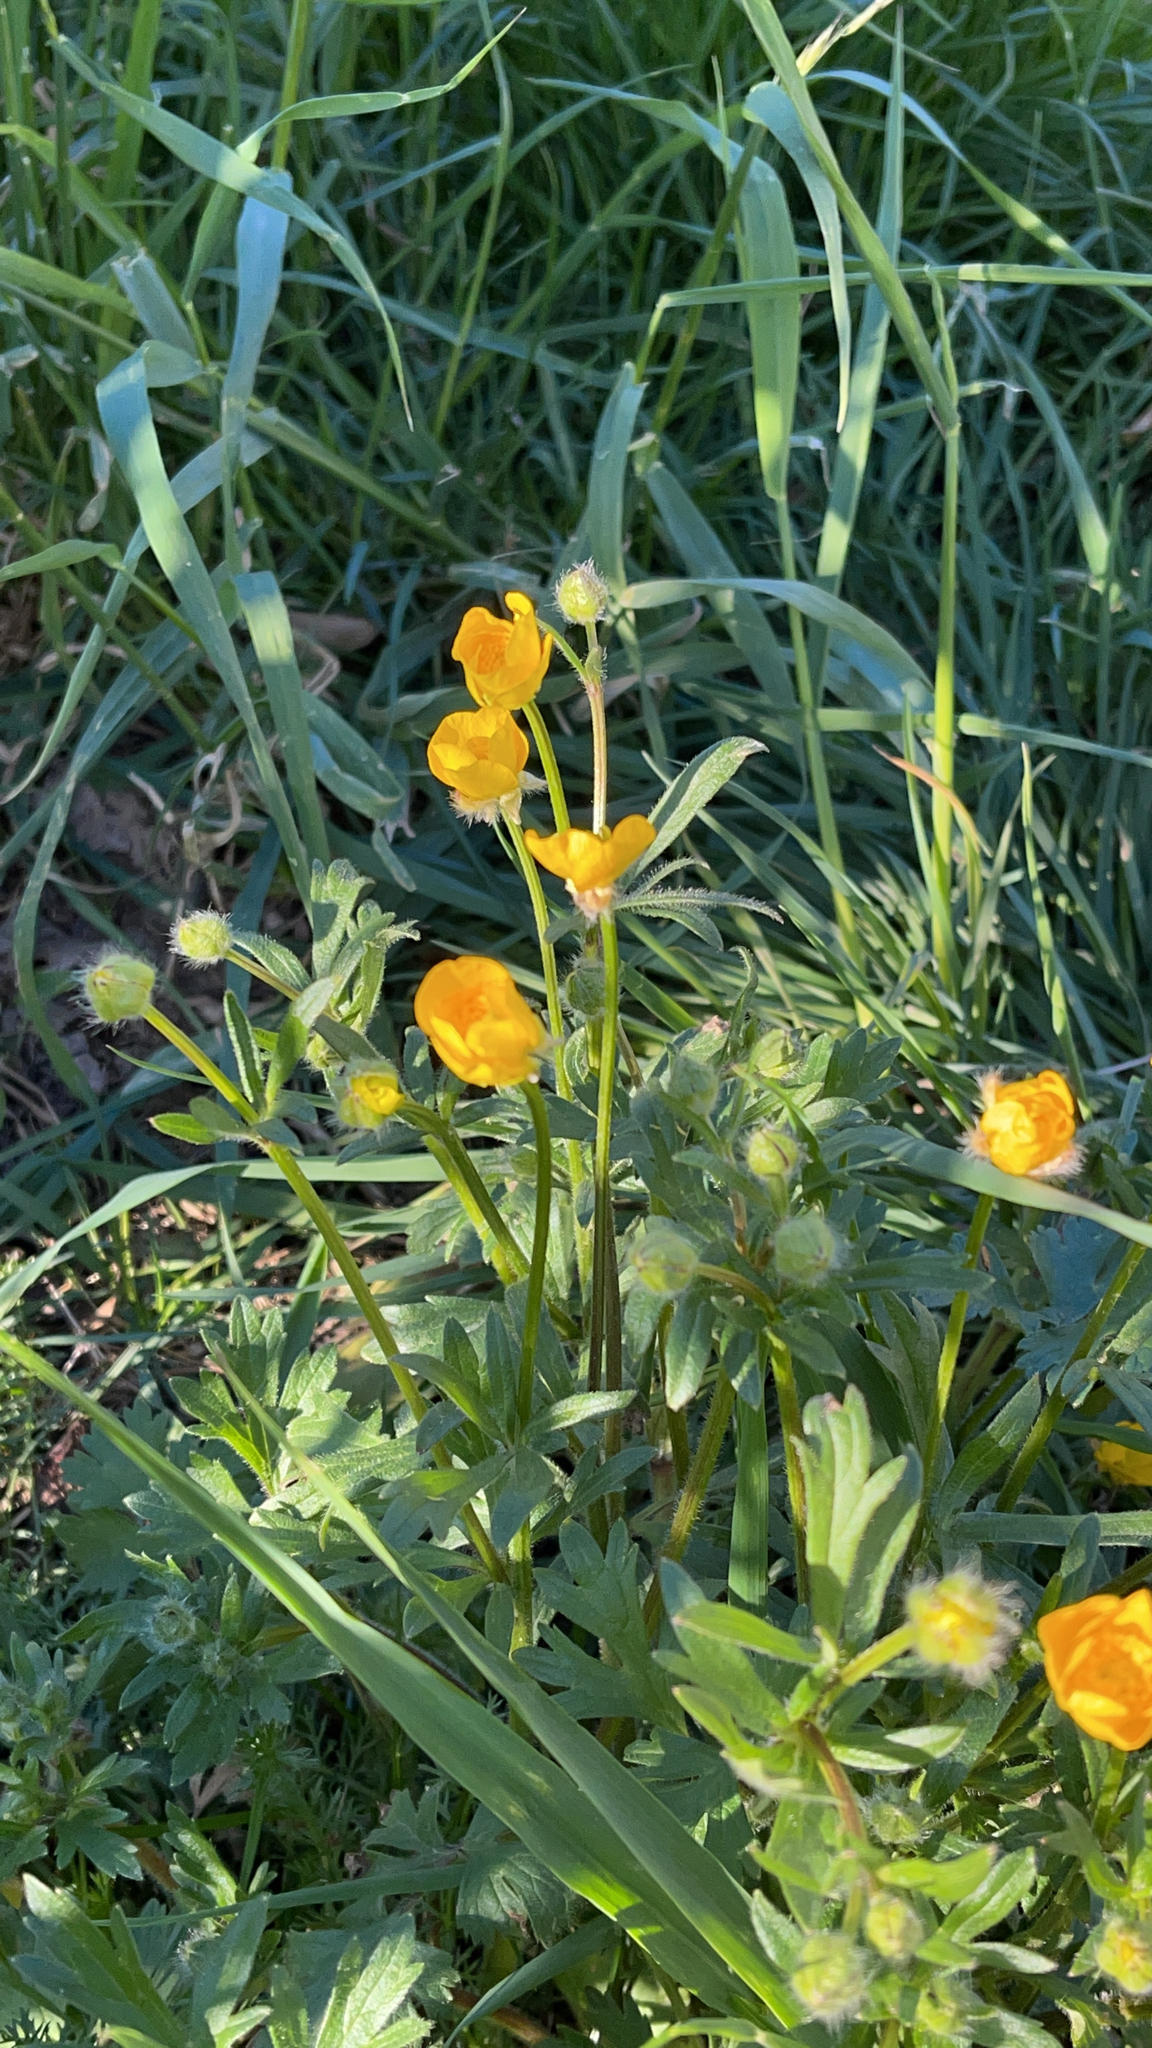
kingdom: Plantae
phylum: Tracheophyta
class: Magnoliopsida
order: Ranunculales
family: Ranunculaceae
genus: Ranunculus
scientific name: Ranunculus bulbosus
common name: Bulbous buttercup
